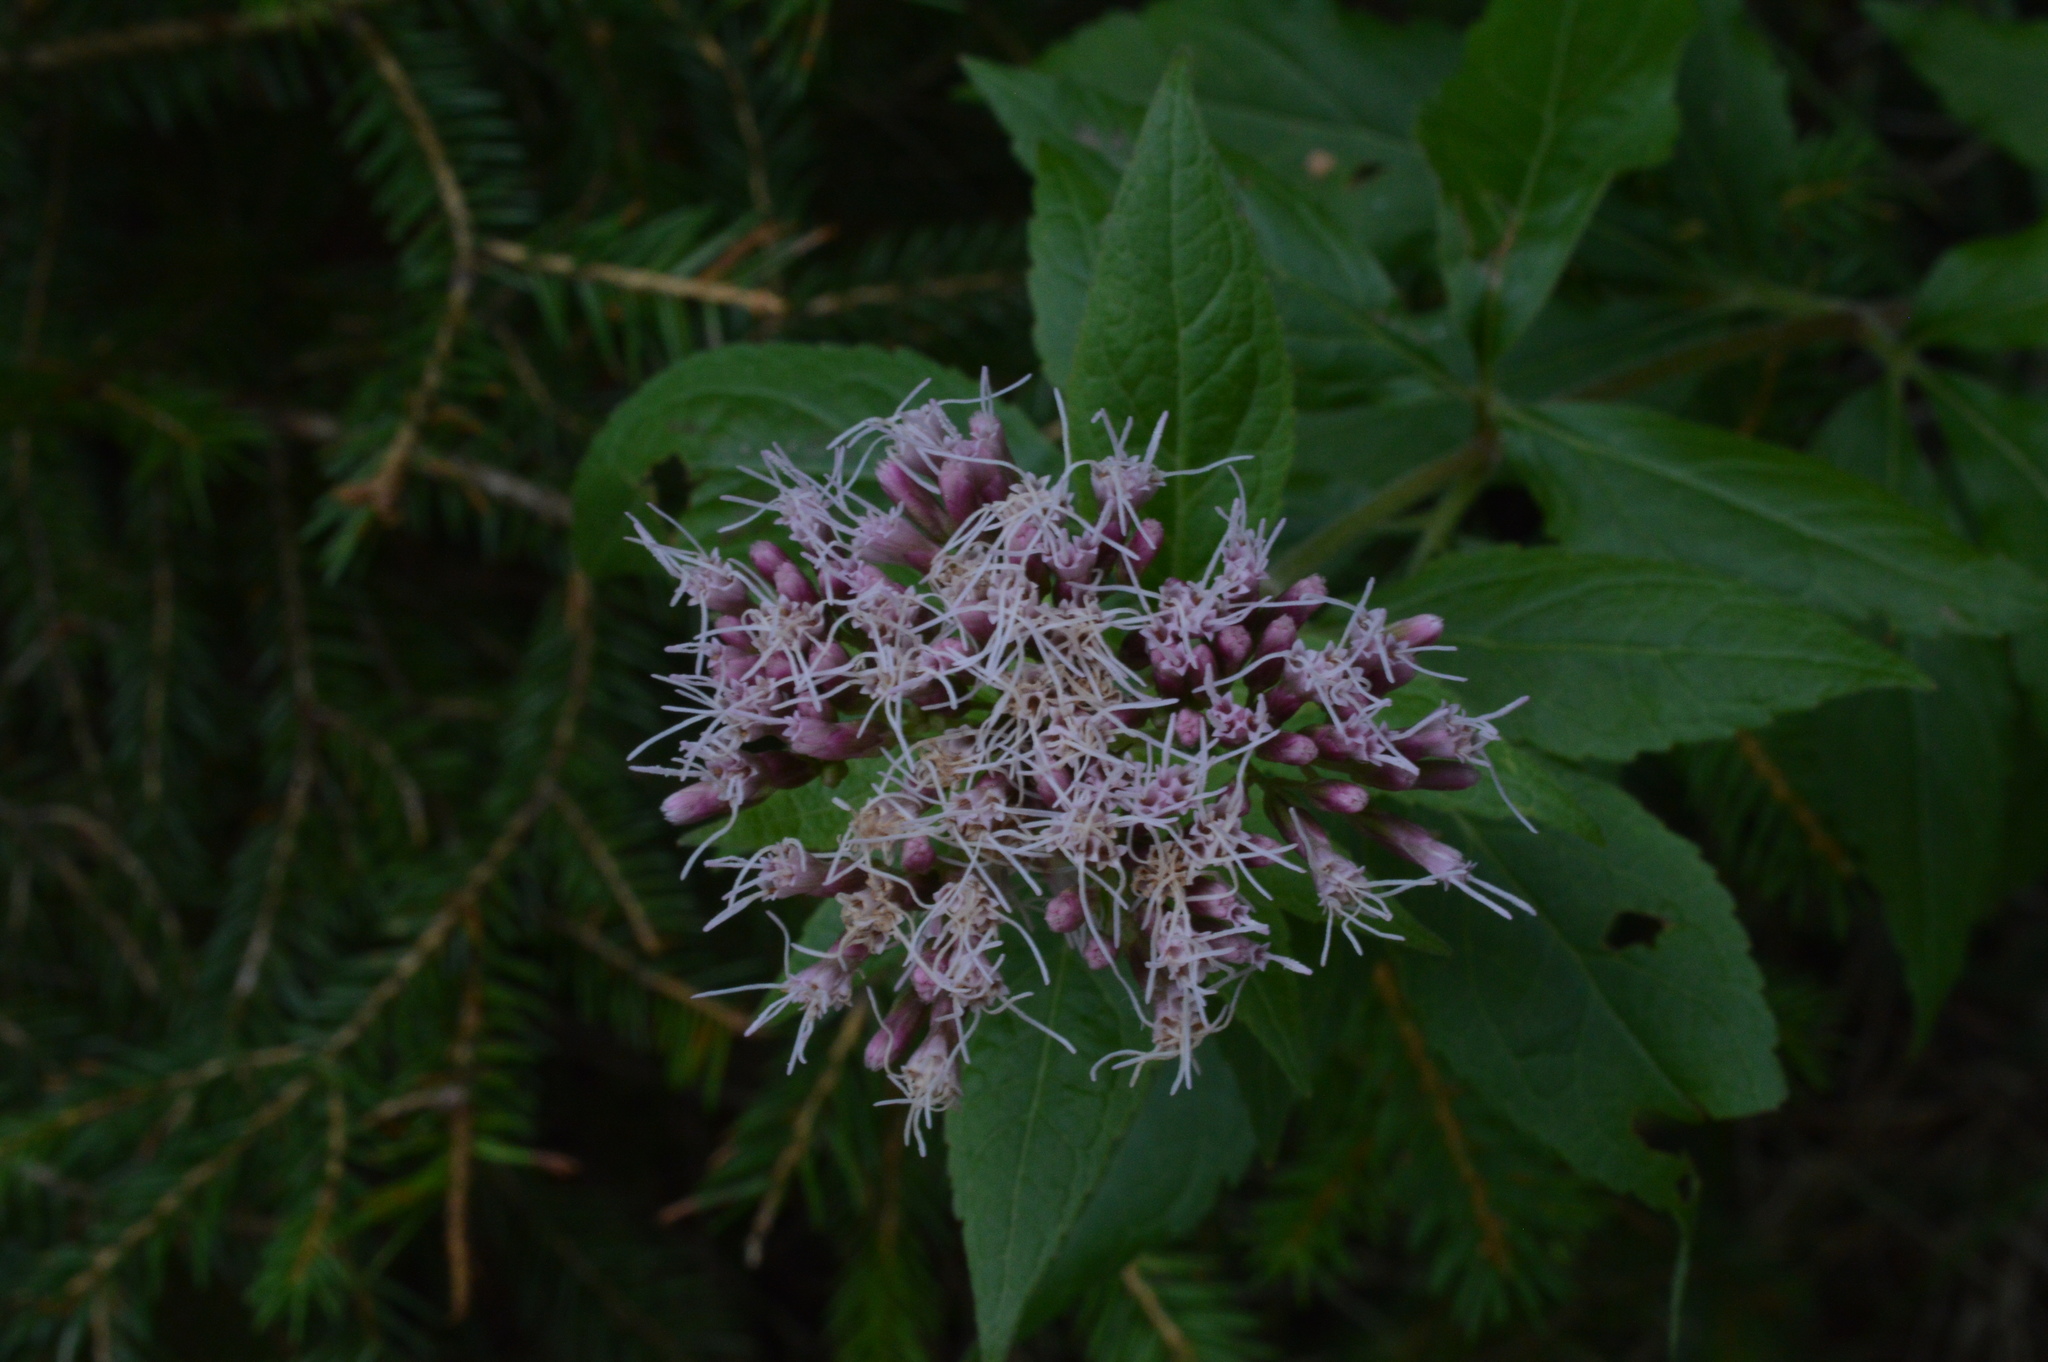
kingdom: Plantae
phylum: Tracheophyta
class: Magnoliopsida
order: Asterales
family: Asteraceae
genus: Eupatorium
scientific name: Eupatorium cannabinum
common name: Hemp-agrimony
